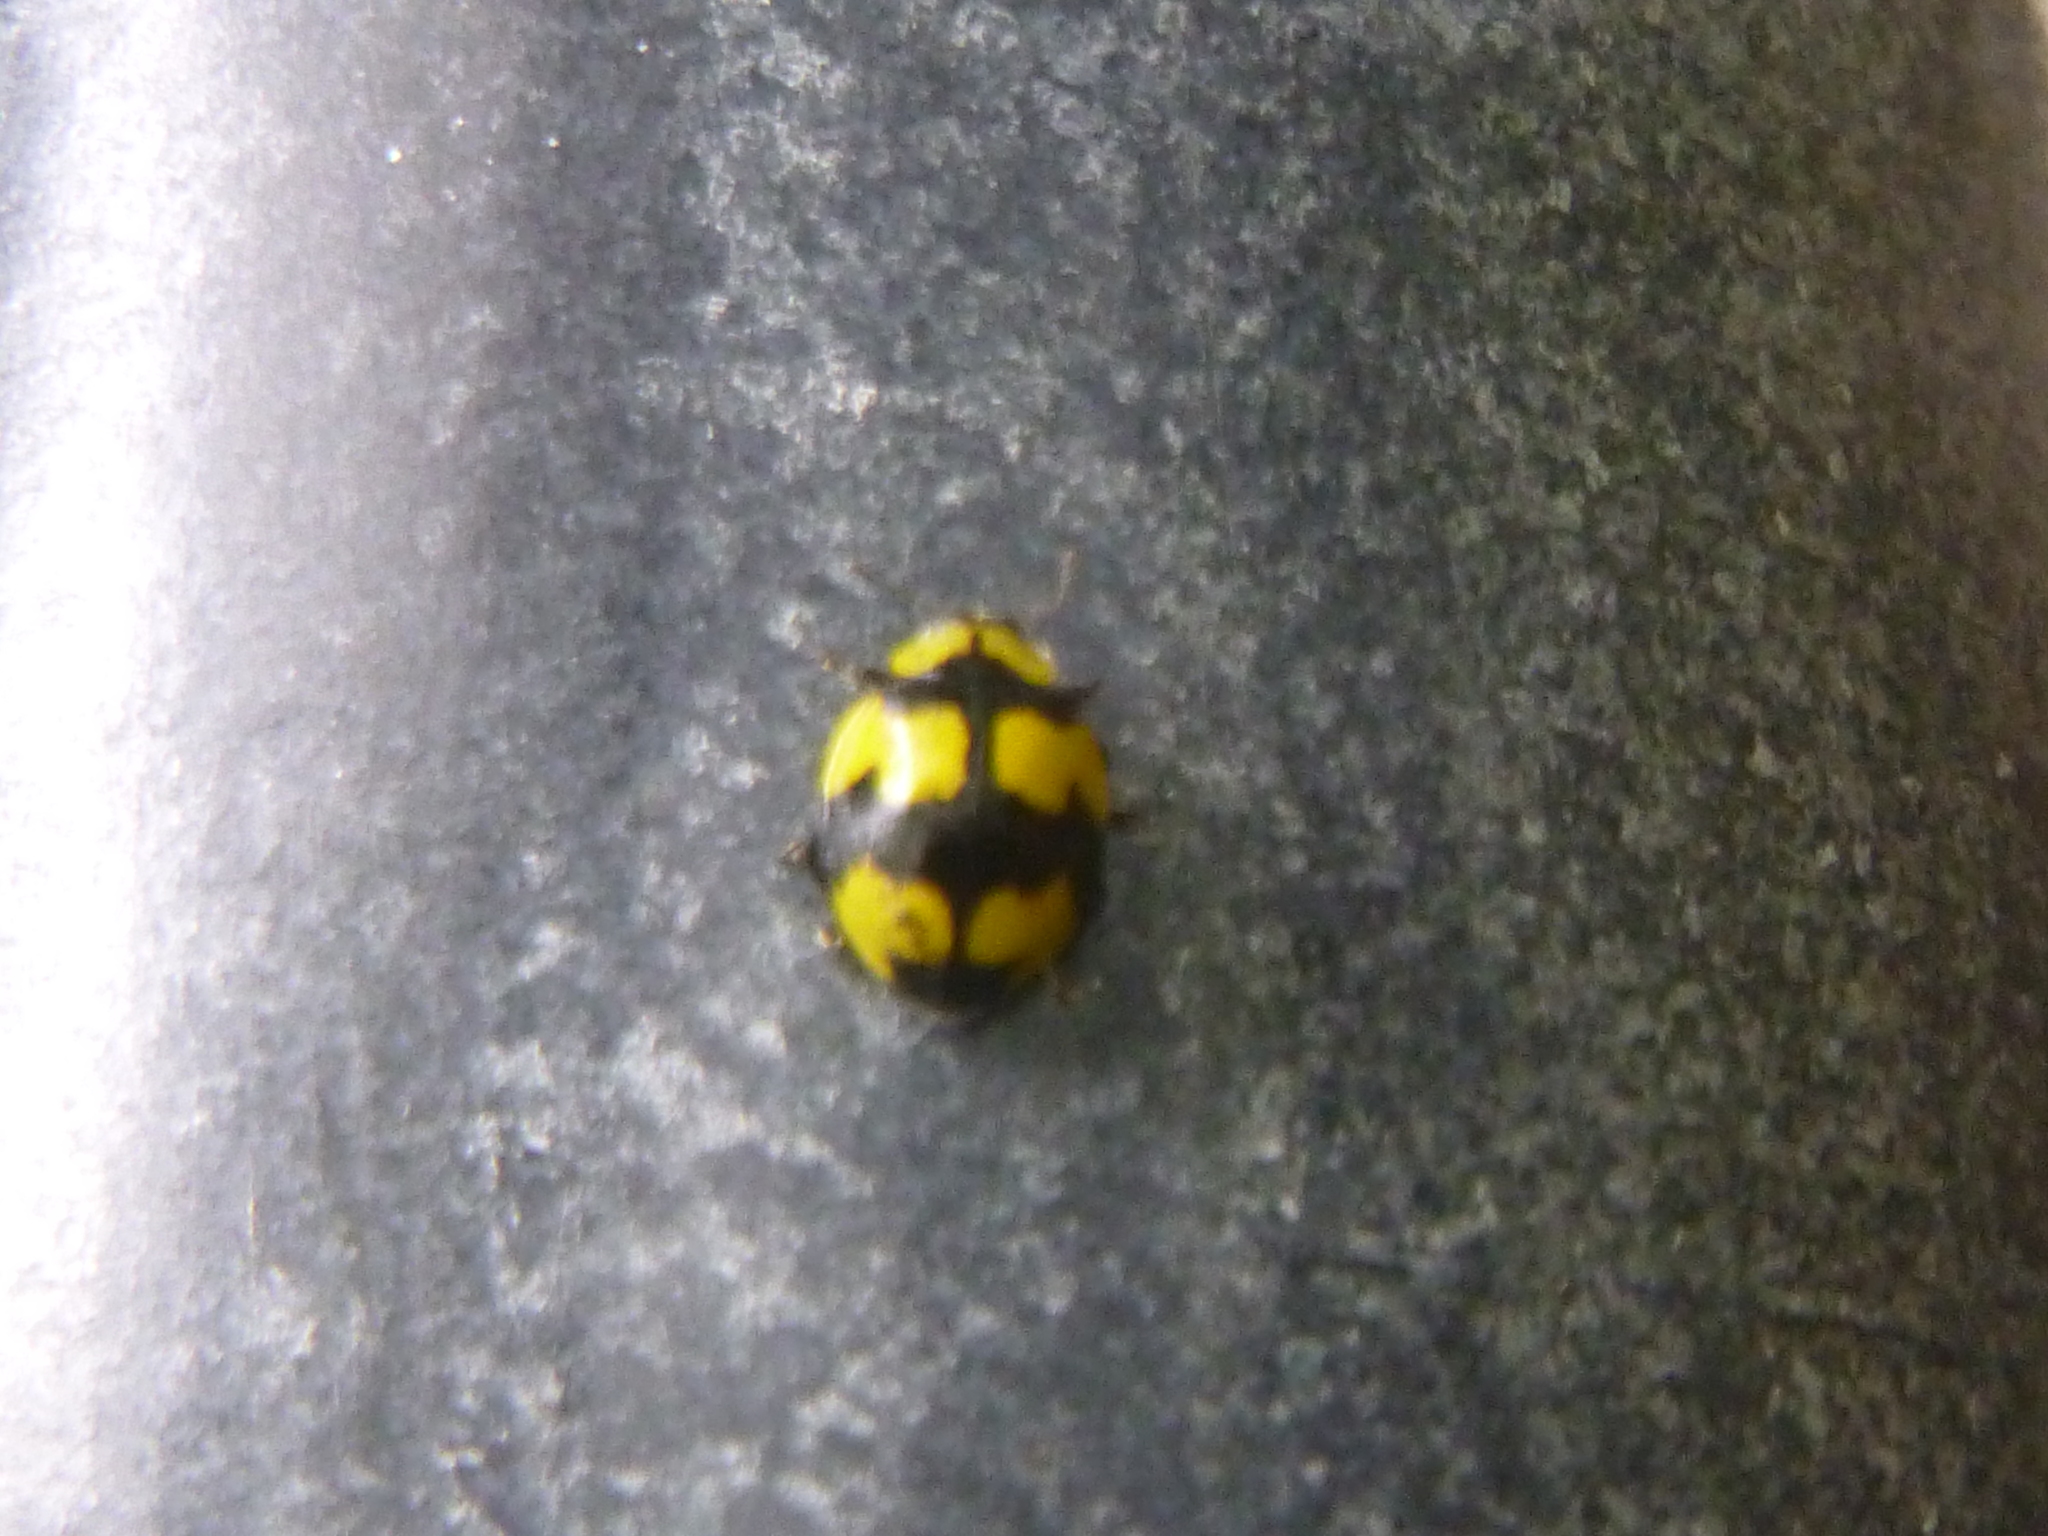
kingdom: Animalia
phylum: Arthropoda
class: Insecta
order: Coleoptera
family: Coccinellidae
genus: Illeis
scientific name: Illeis galbula
